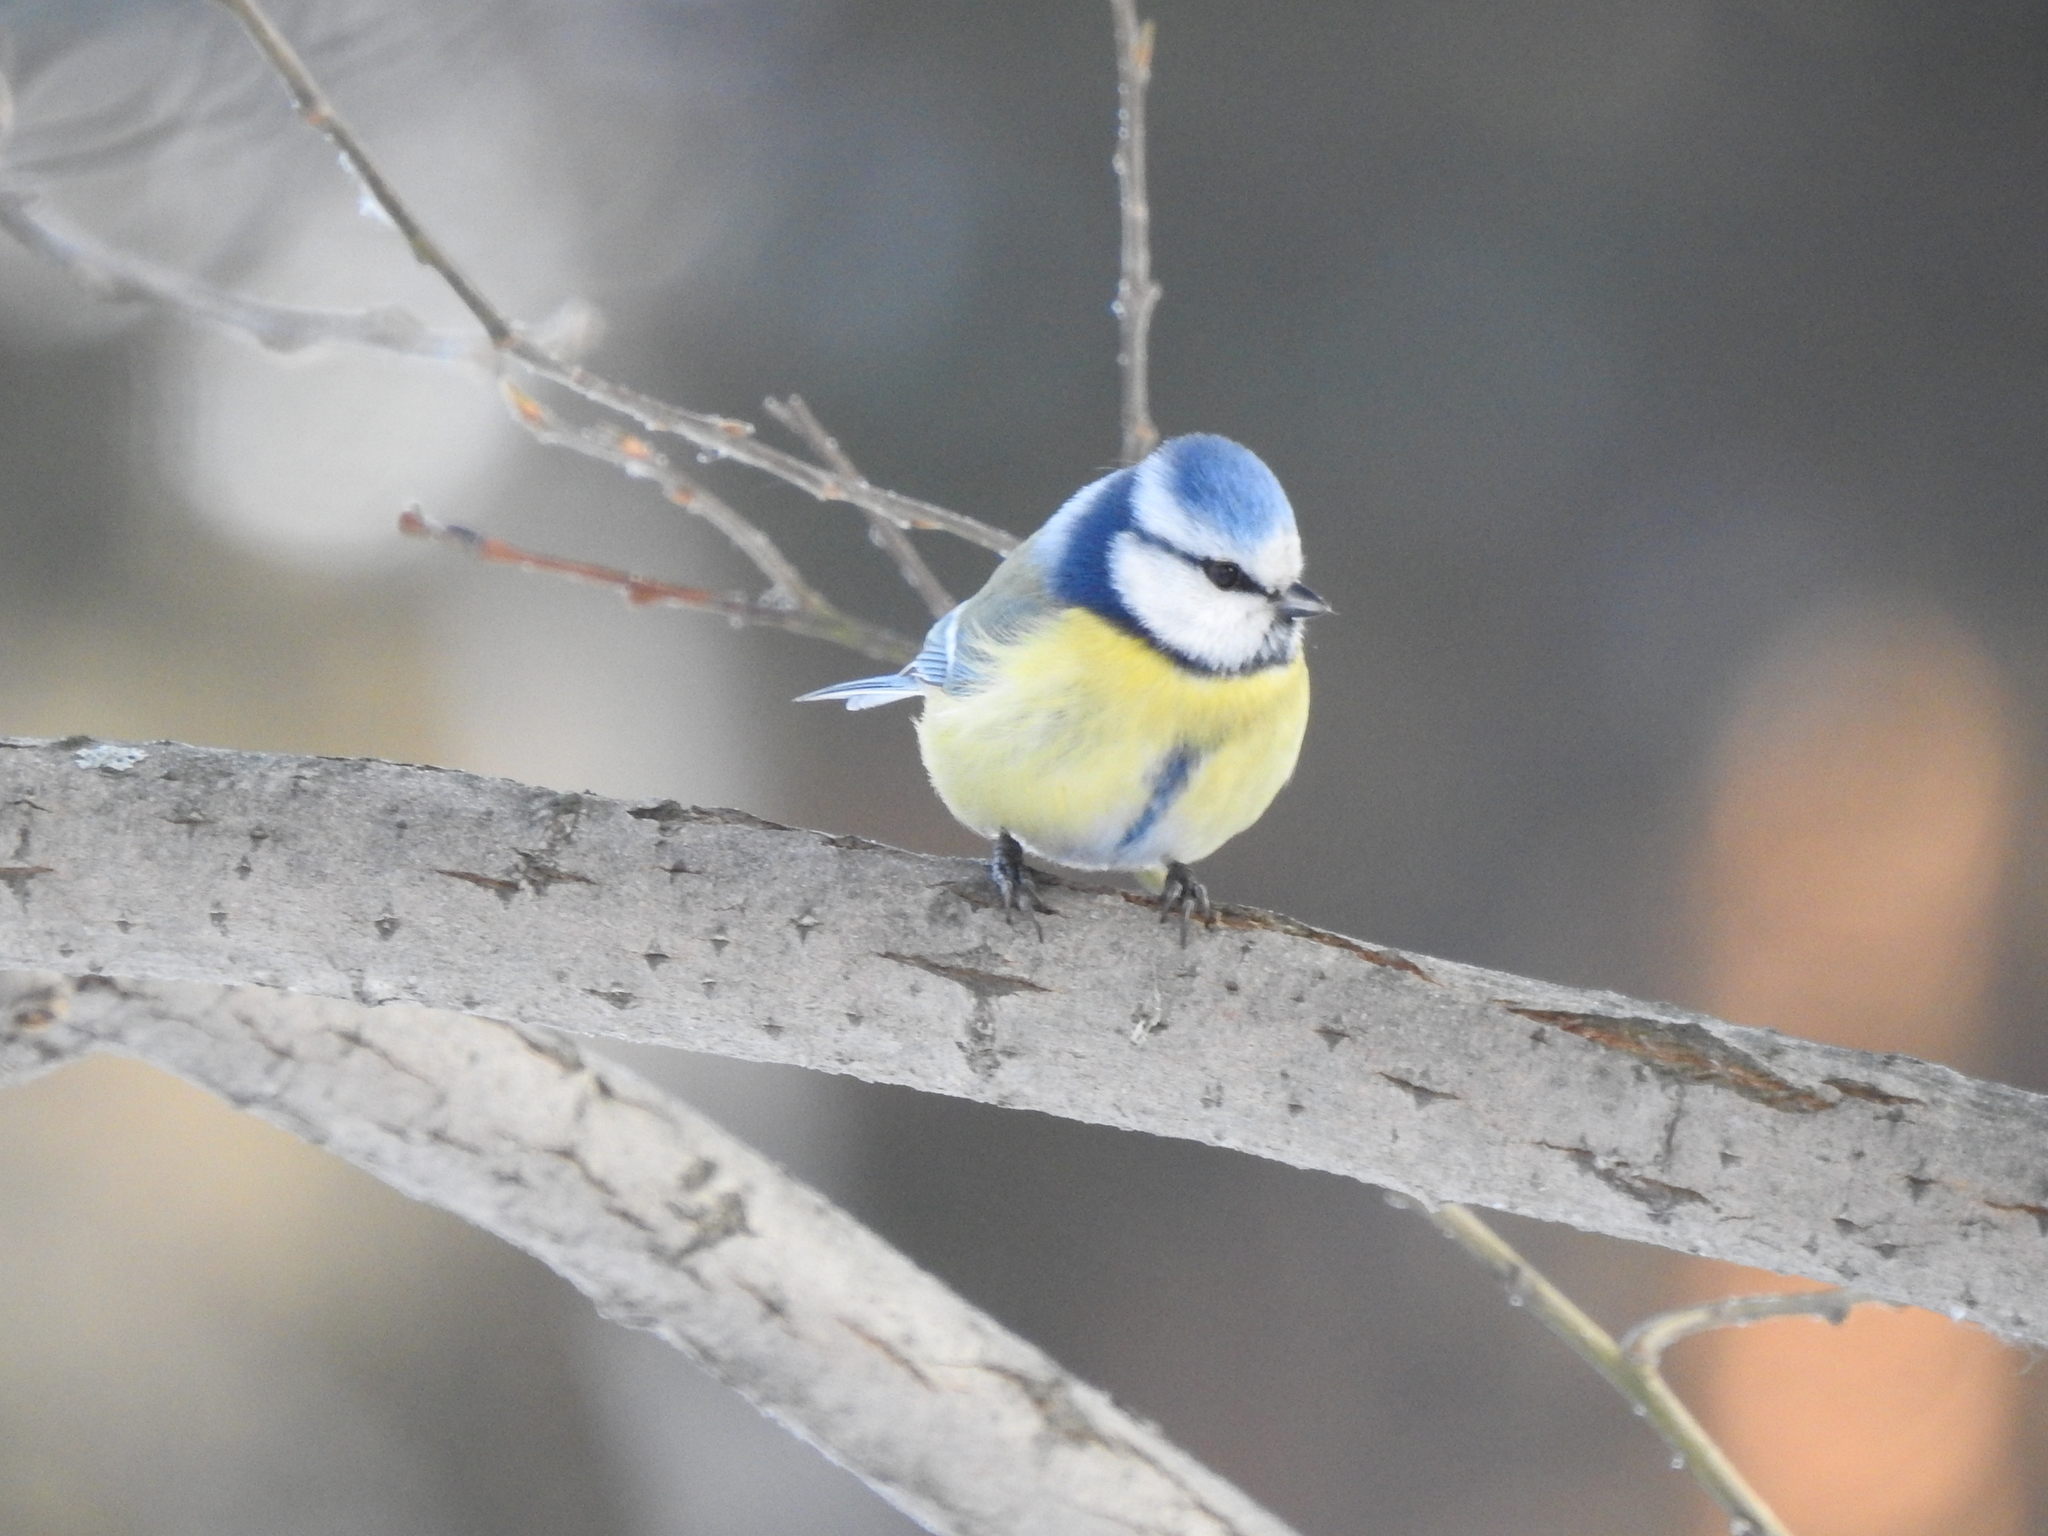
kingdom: Animalia
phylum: Chordata
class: Aves
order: Passeriformes
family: Paridae
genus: Cyanistes
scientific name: Cyanistes caeruleus
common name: Eurasian blue tit
